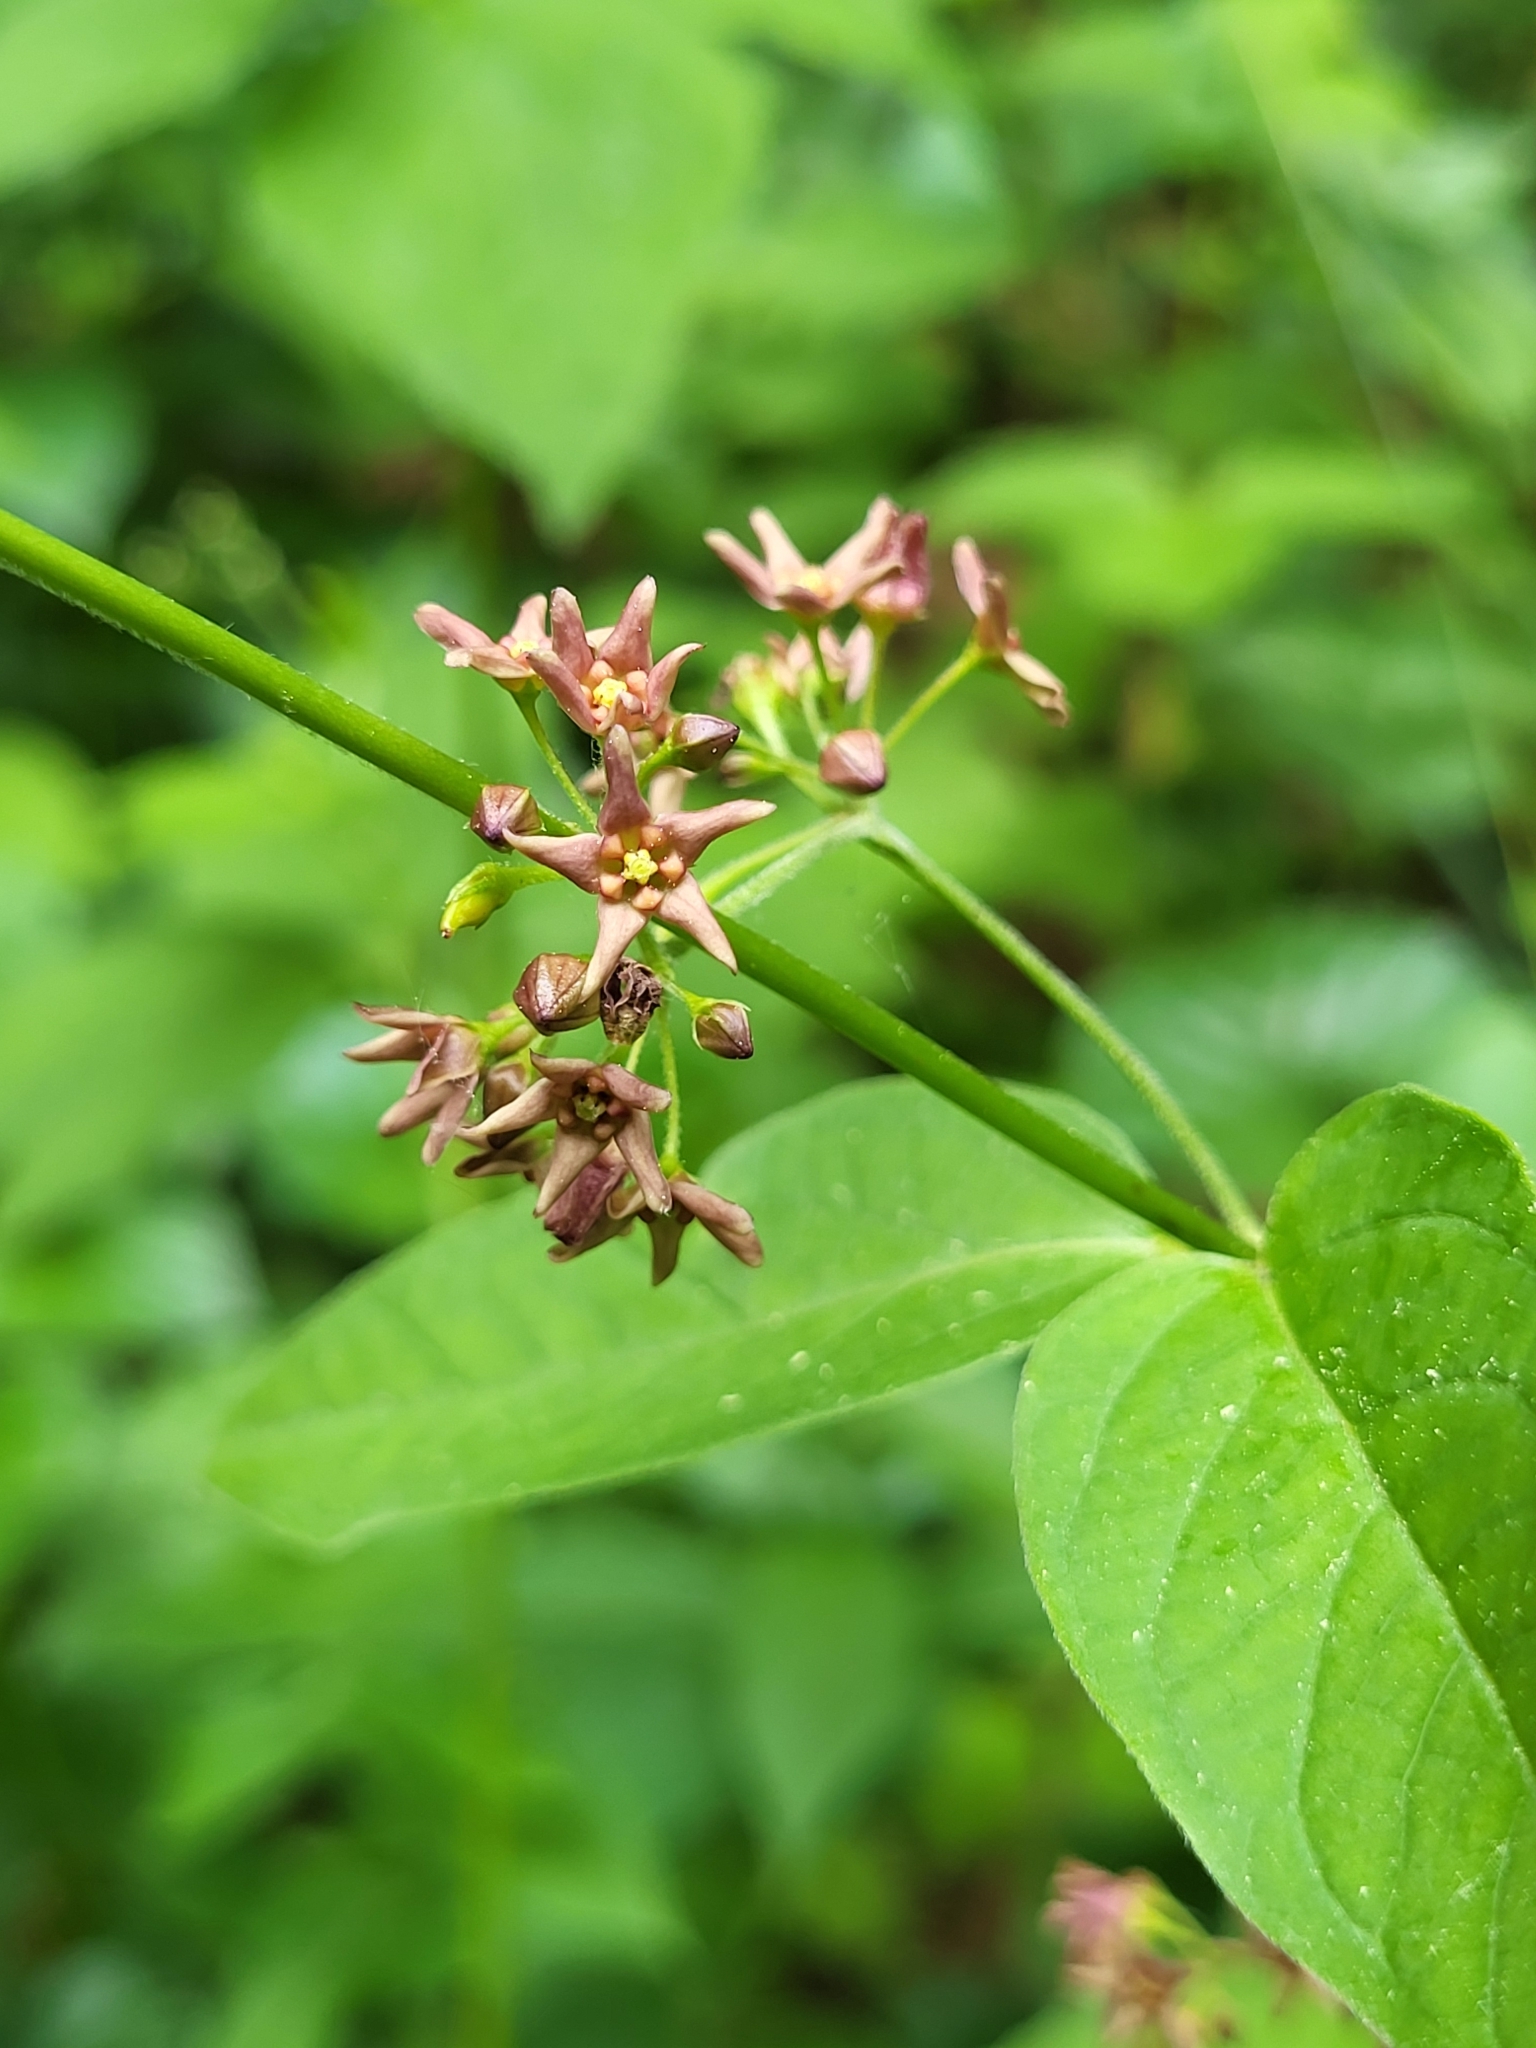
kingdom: Plantae
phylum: Tracheophyta
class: Magnoliopsida
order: Gentianales
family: Apocynaceae
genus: Vincetoxicum
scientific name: Vincetoxicum rossicum
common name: Dog-strangling vine
